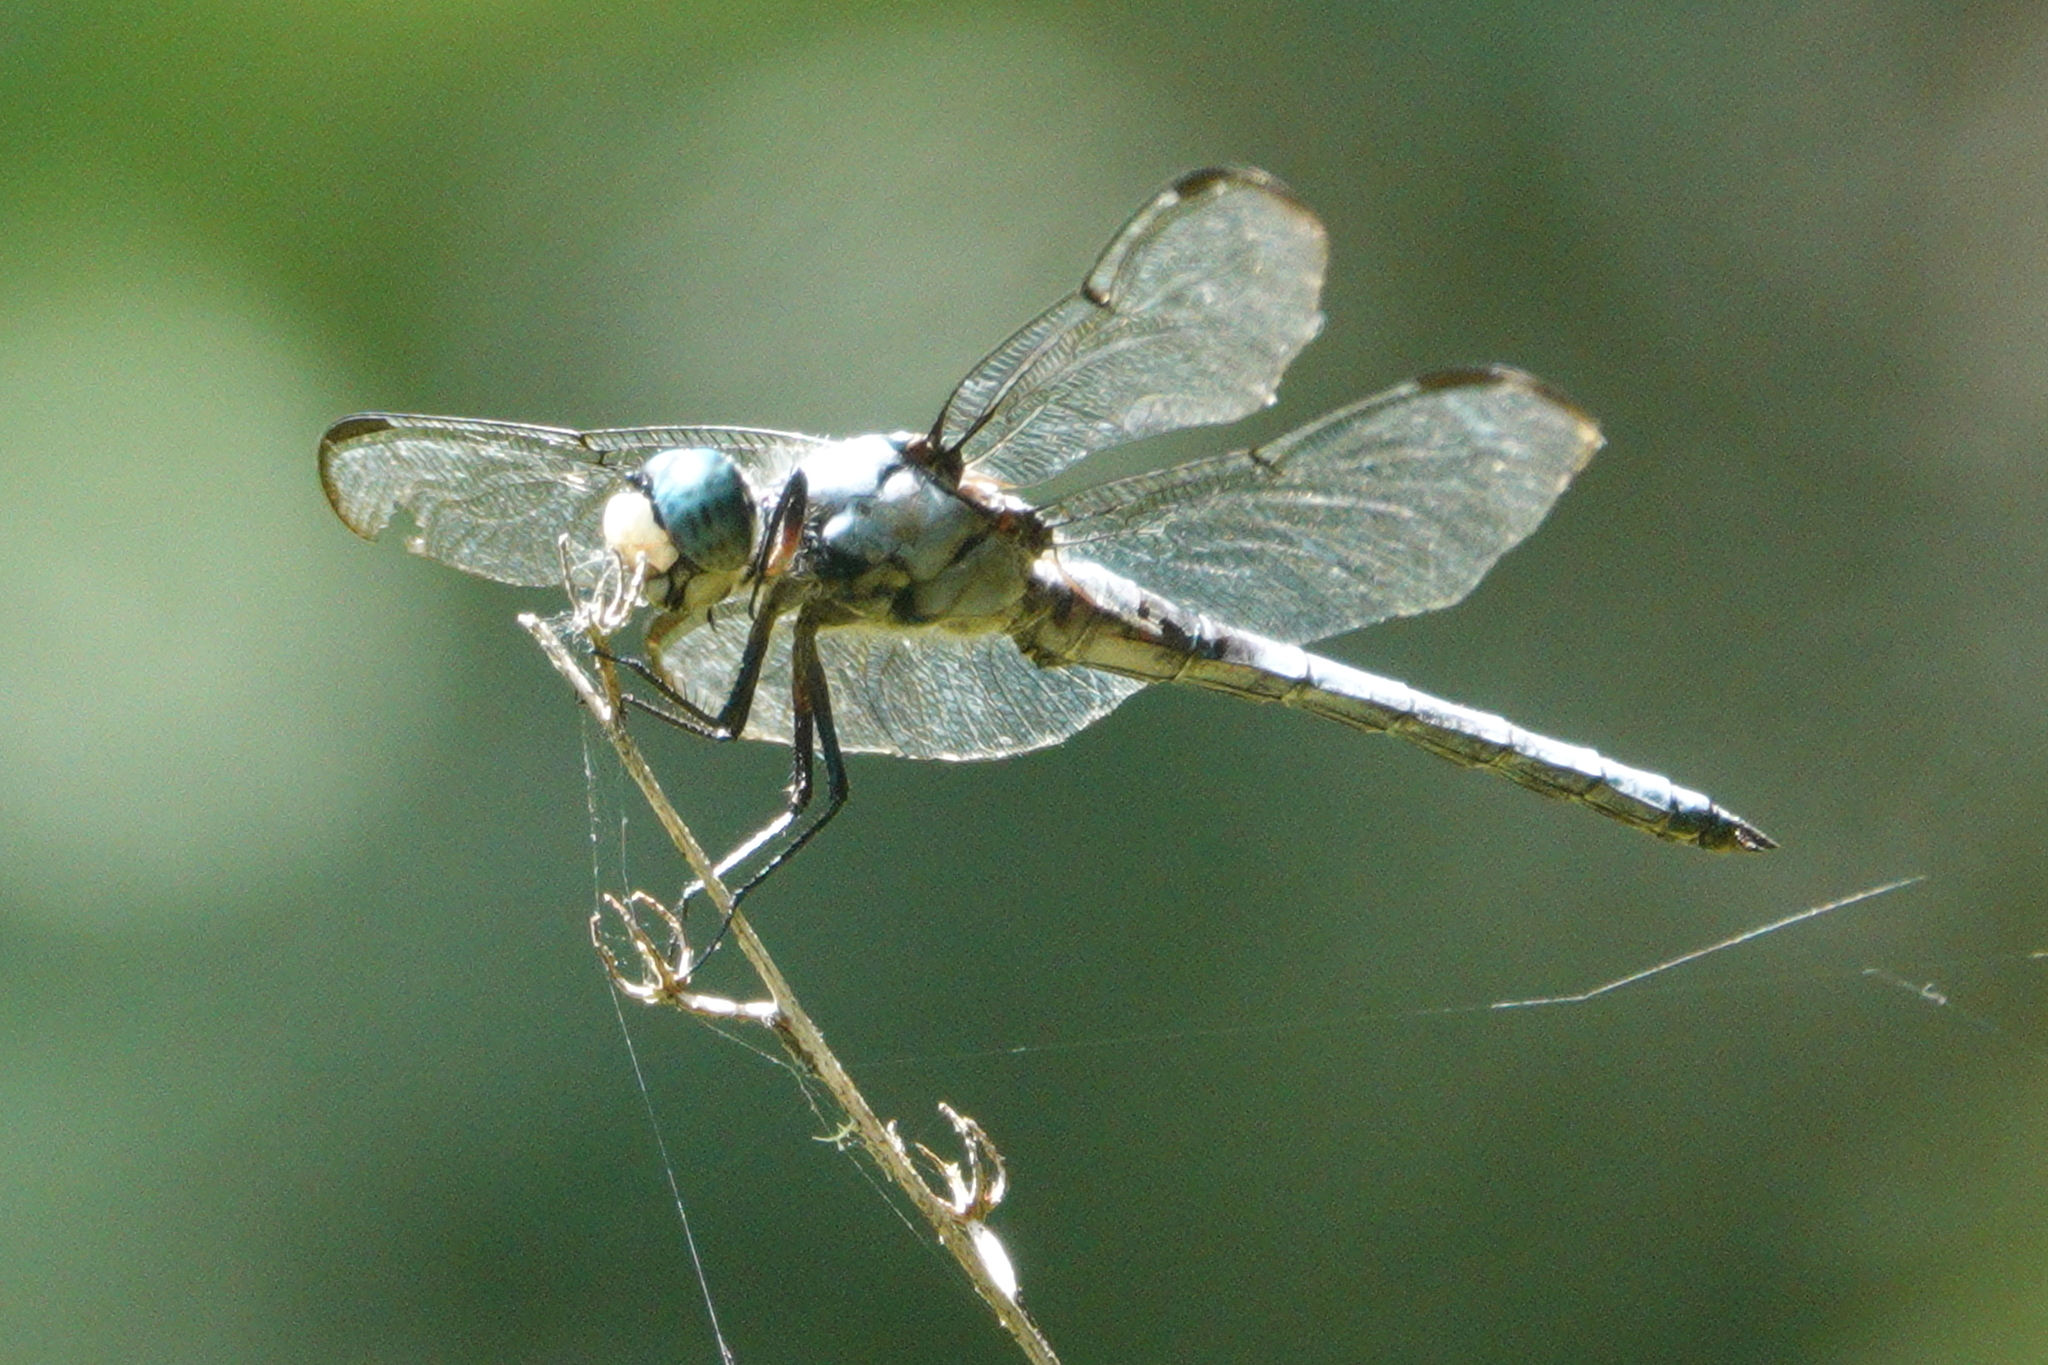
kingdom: Animalia
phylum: Arthropoda
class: Insecta
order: Odonata
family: Libellulidae
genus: Libellula
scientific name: Libellula vibrans
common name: Great blue skimmer
